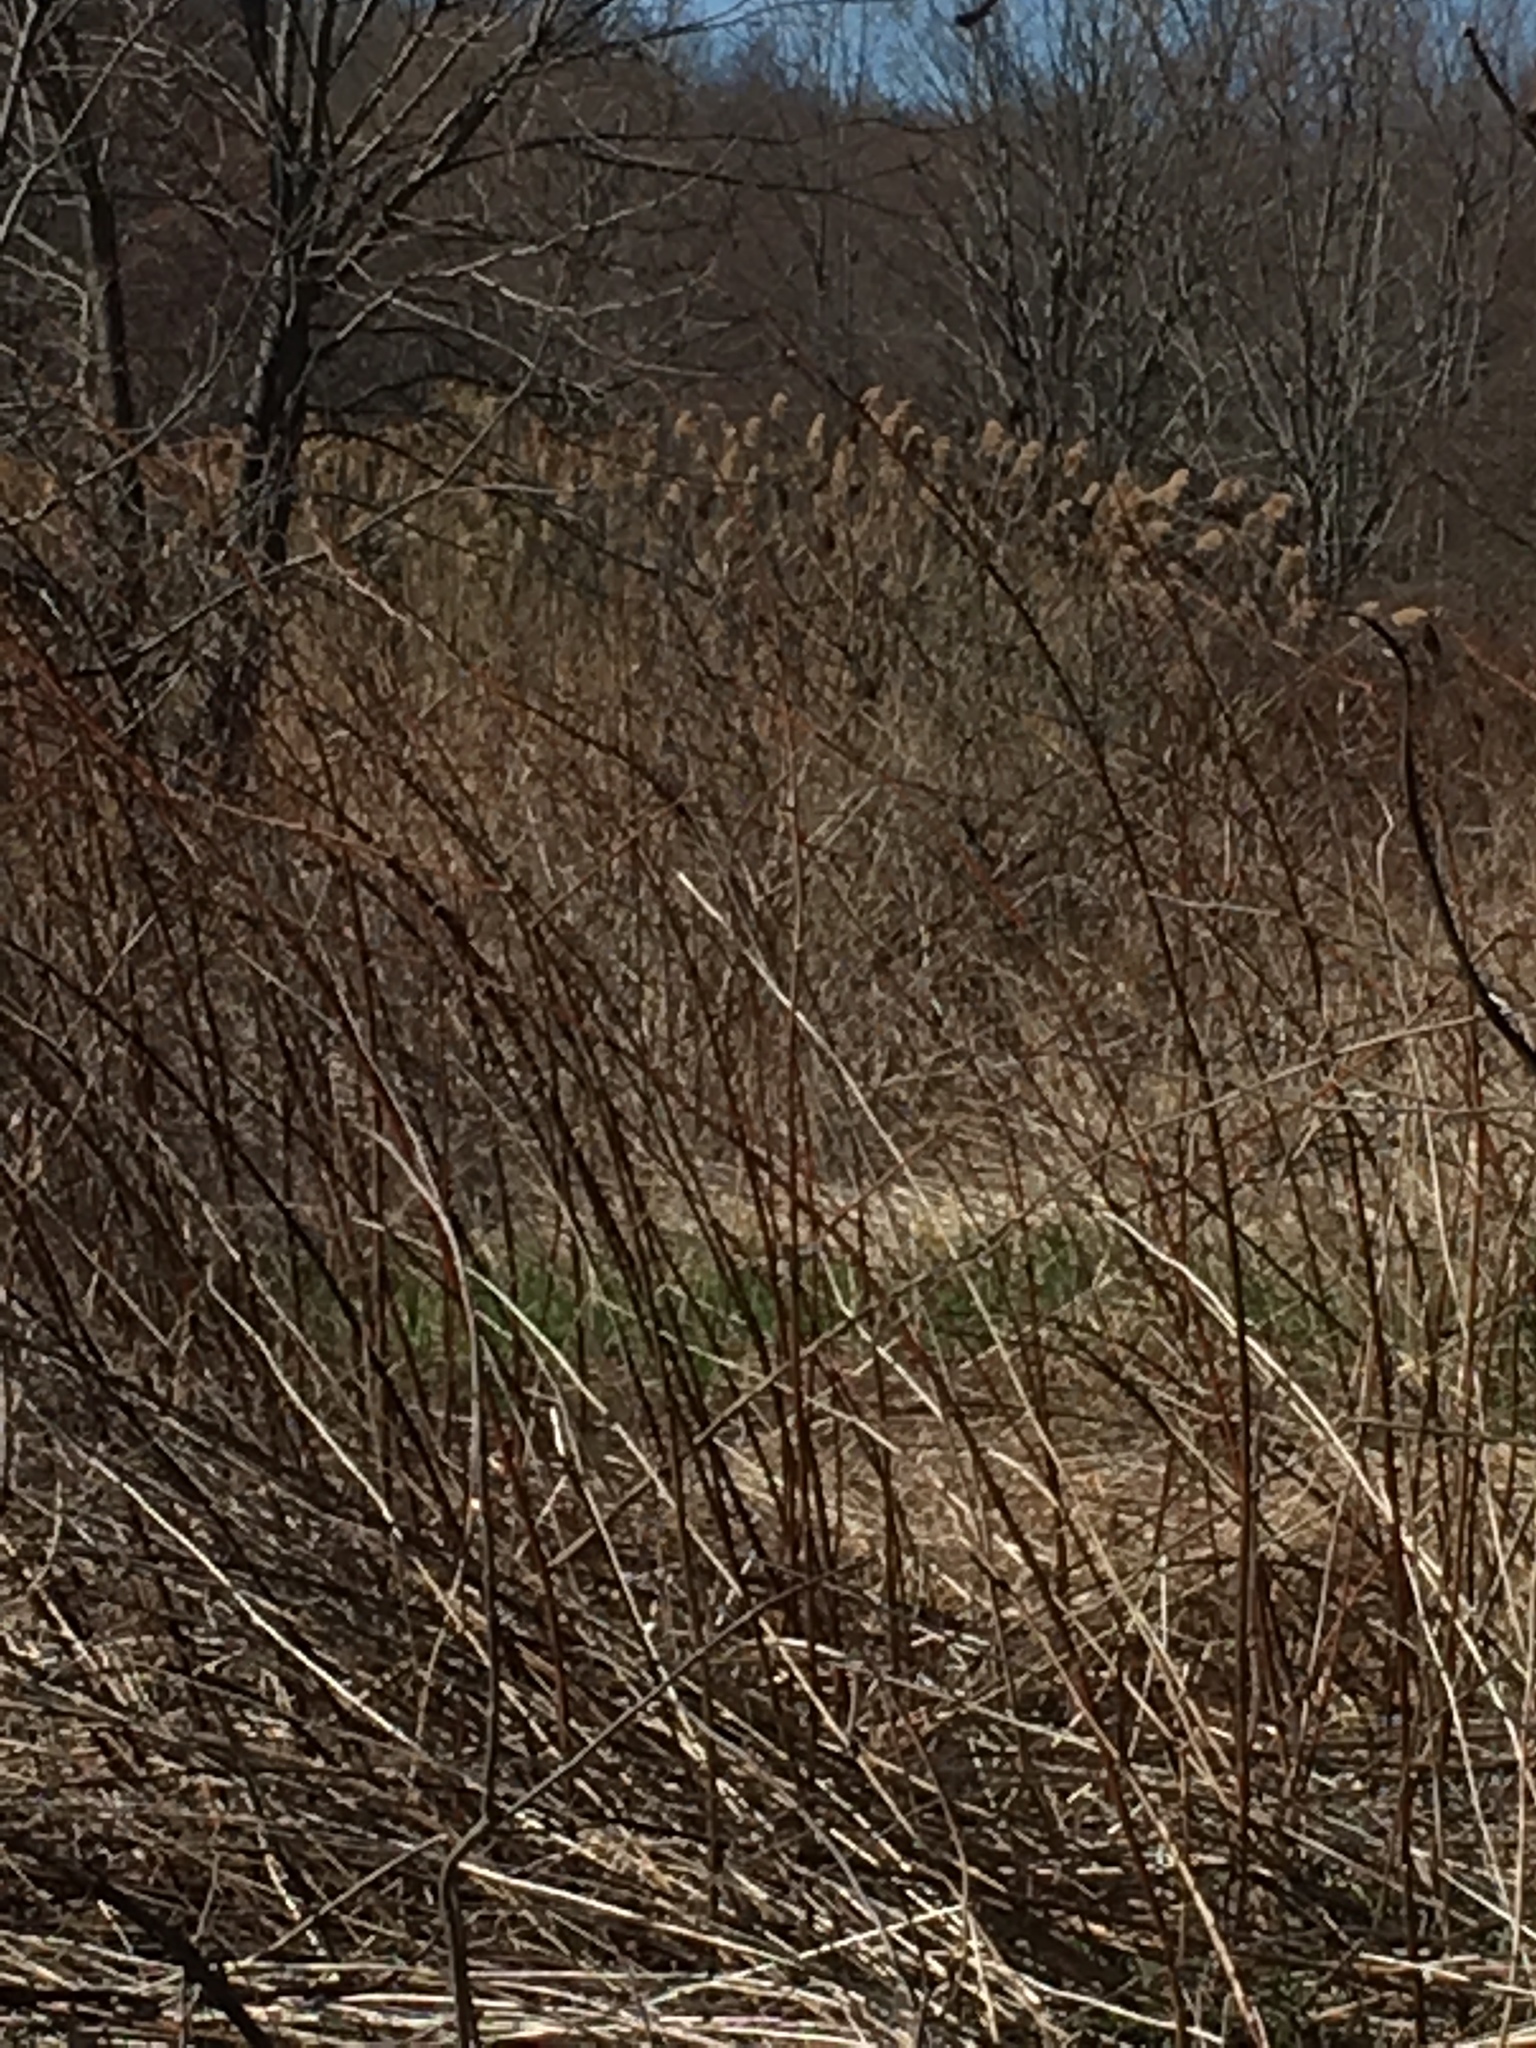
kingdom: Plantae
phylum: Tracheophyta
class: Liliopsida
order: Poales
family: Poaceae
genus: Phragmites
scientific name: Phragmites australis
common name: Common reed
